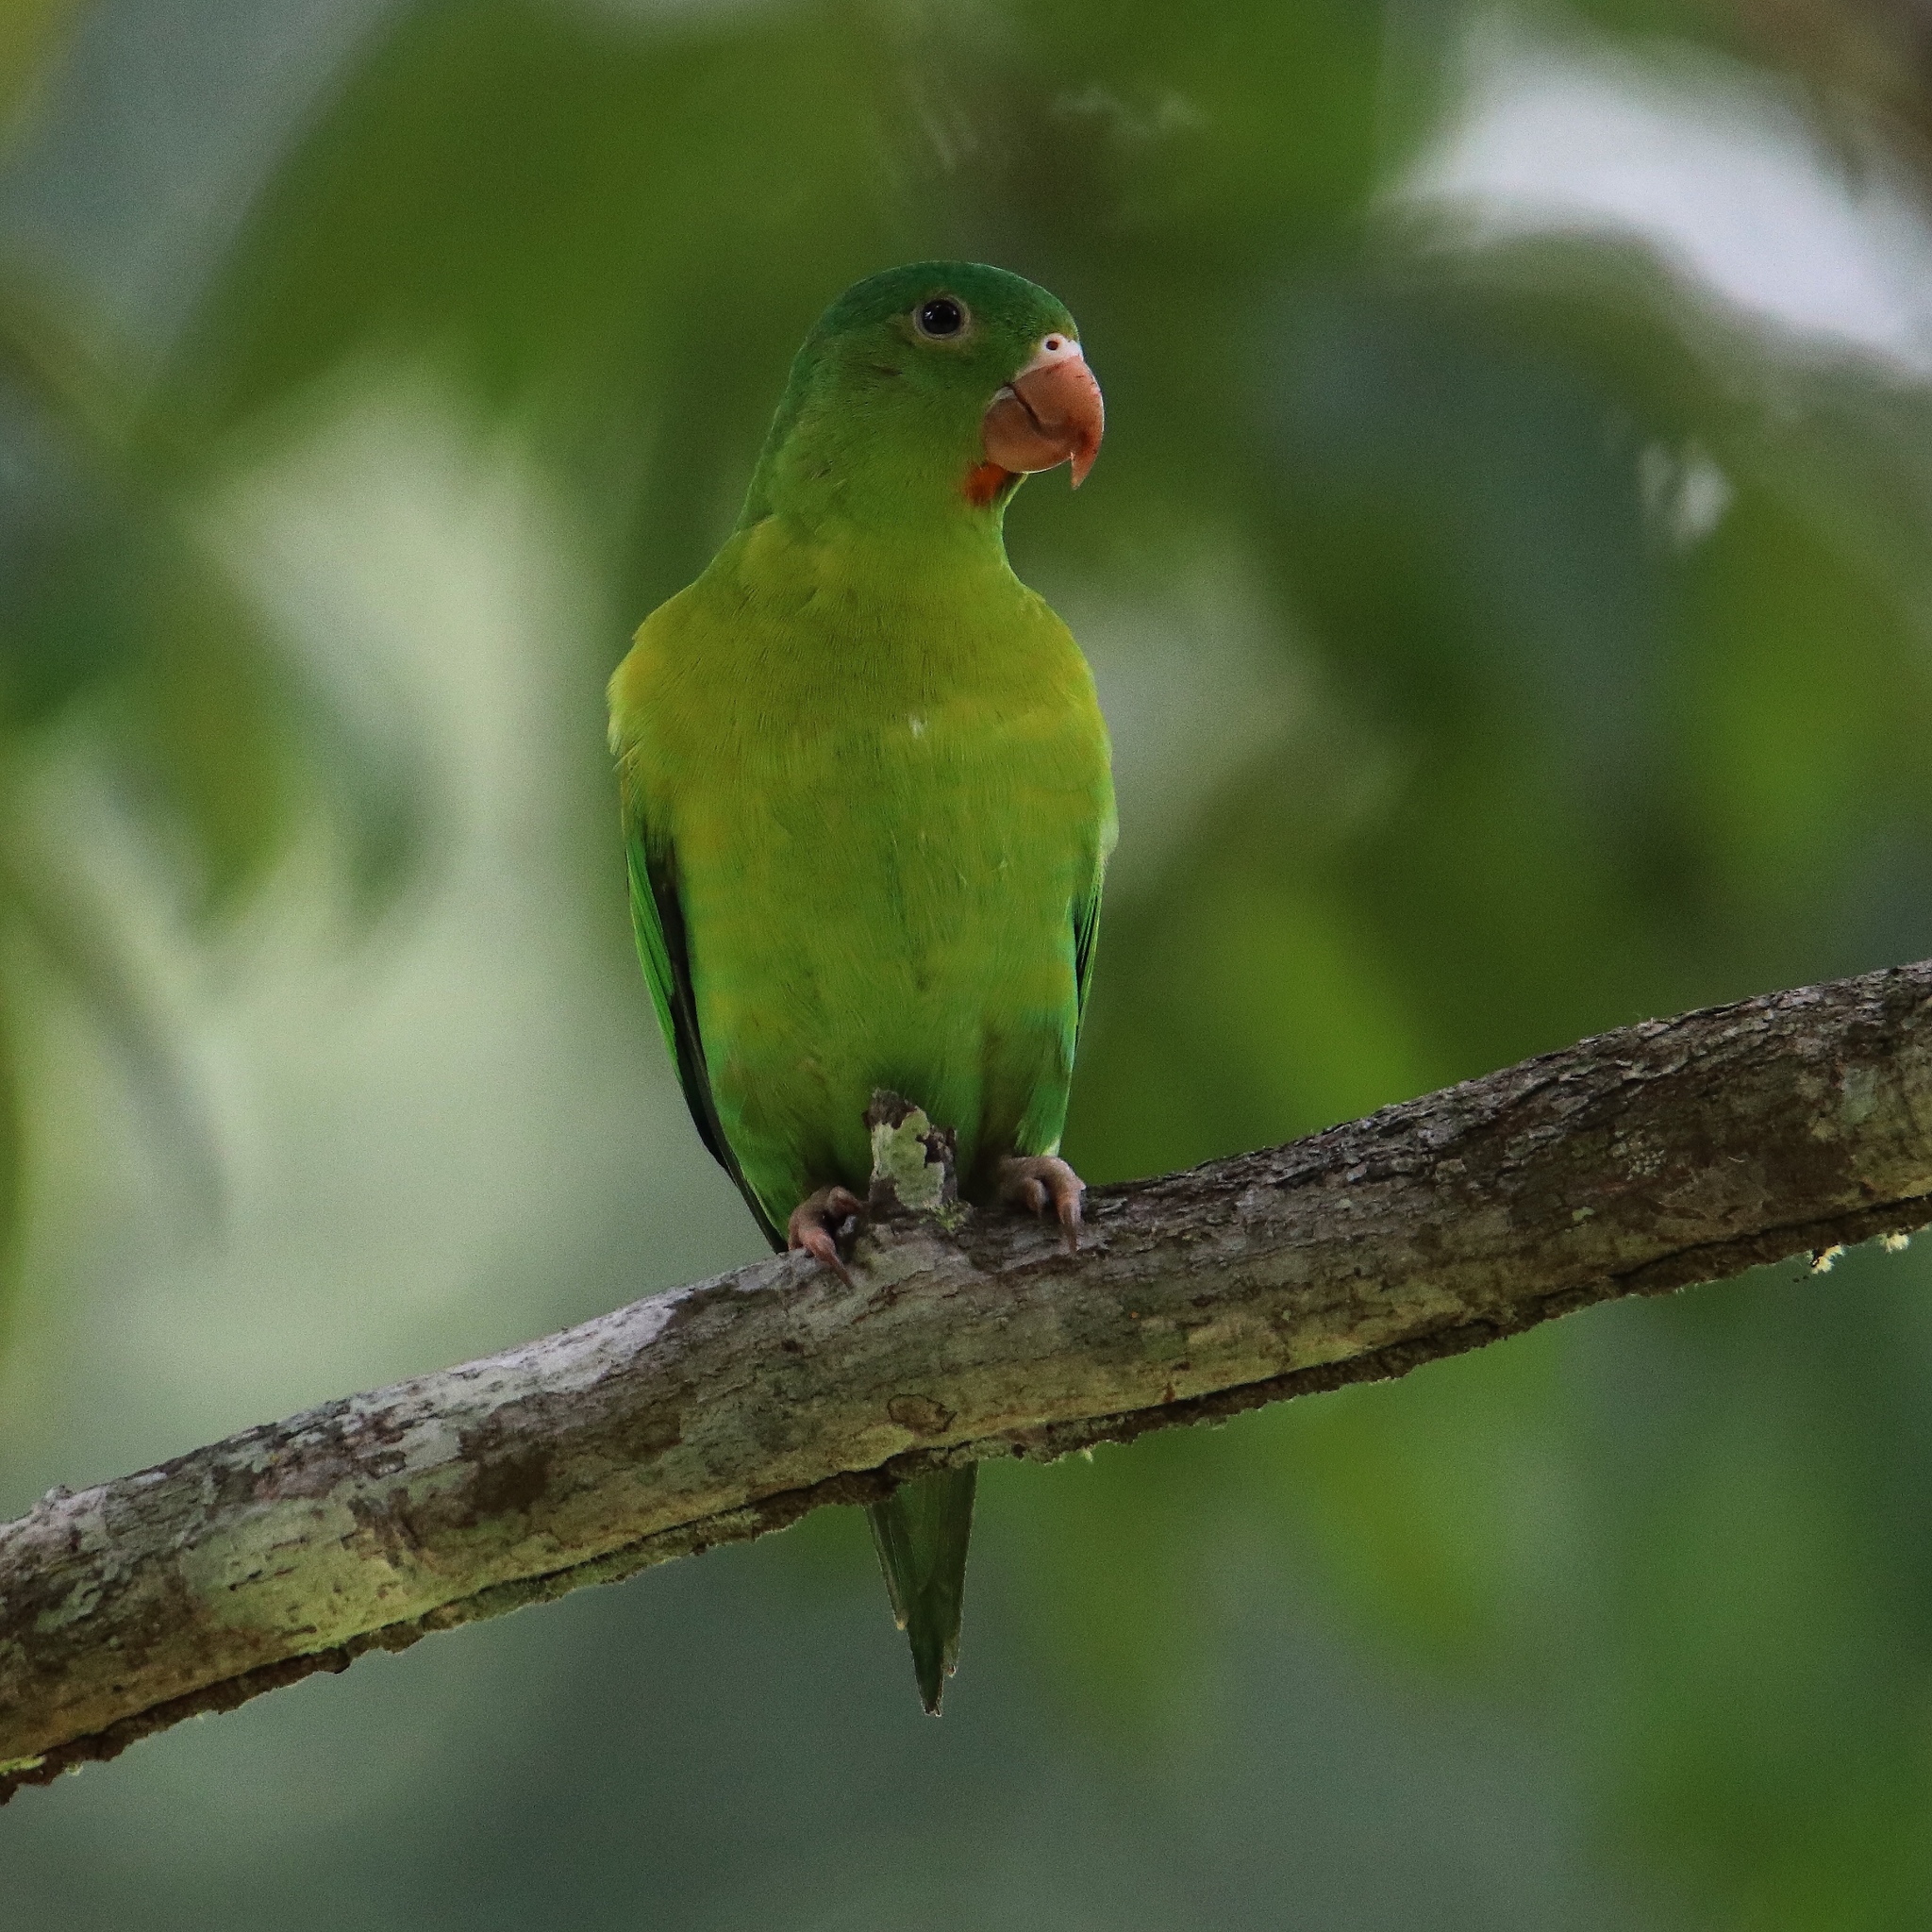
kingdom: Animalia
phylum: Chordata
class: Aves
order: Psittaciformes
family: Psittacidae
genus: Brotogeris
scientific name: Brotogeris jugularis
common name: Orange-chinned parakeet
